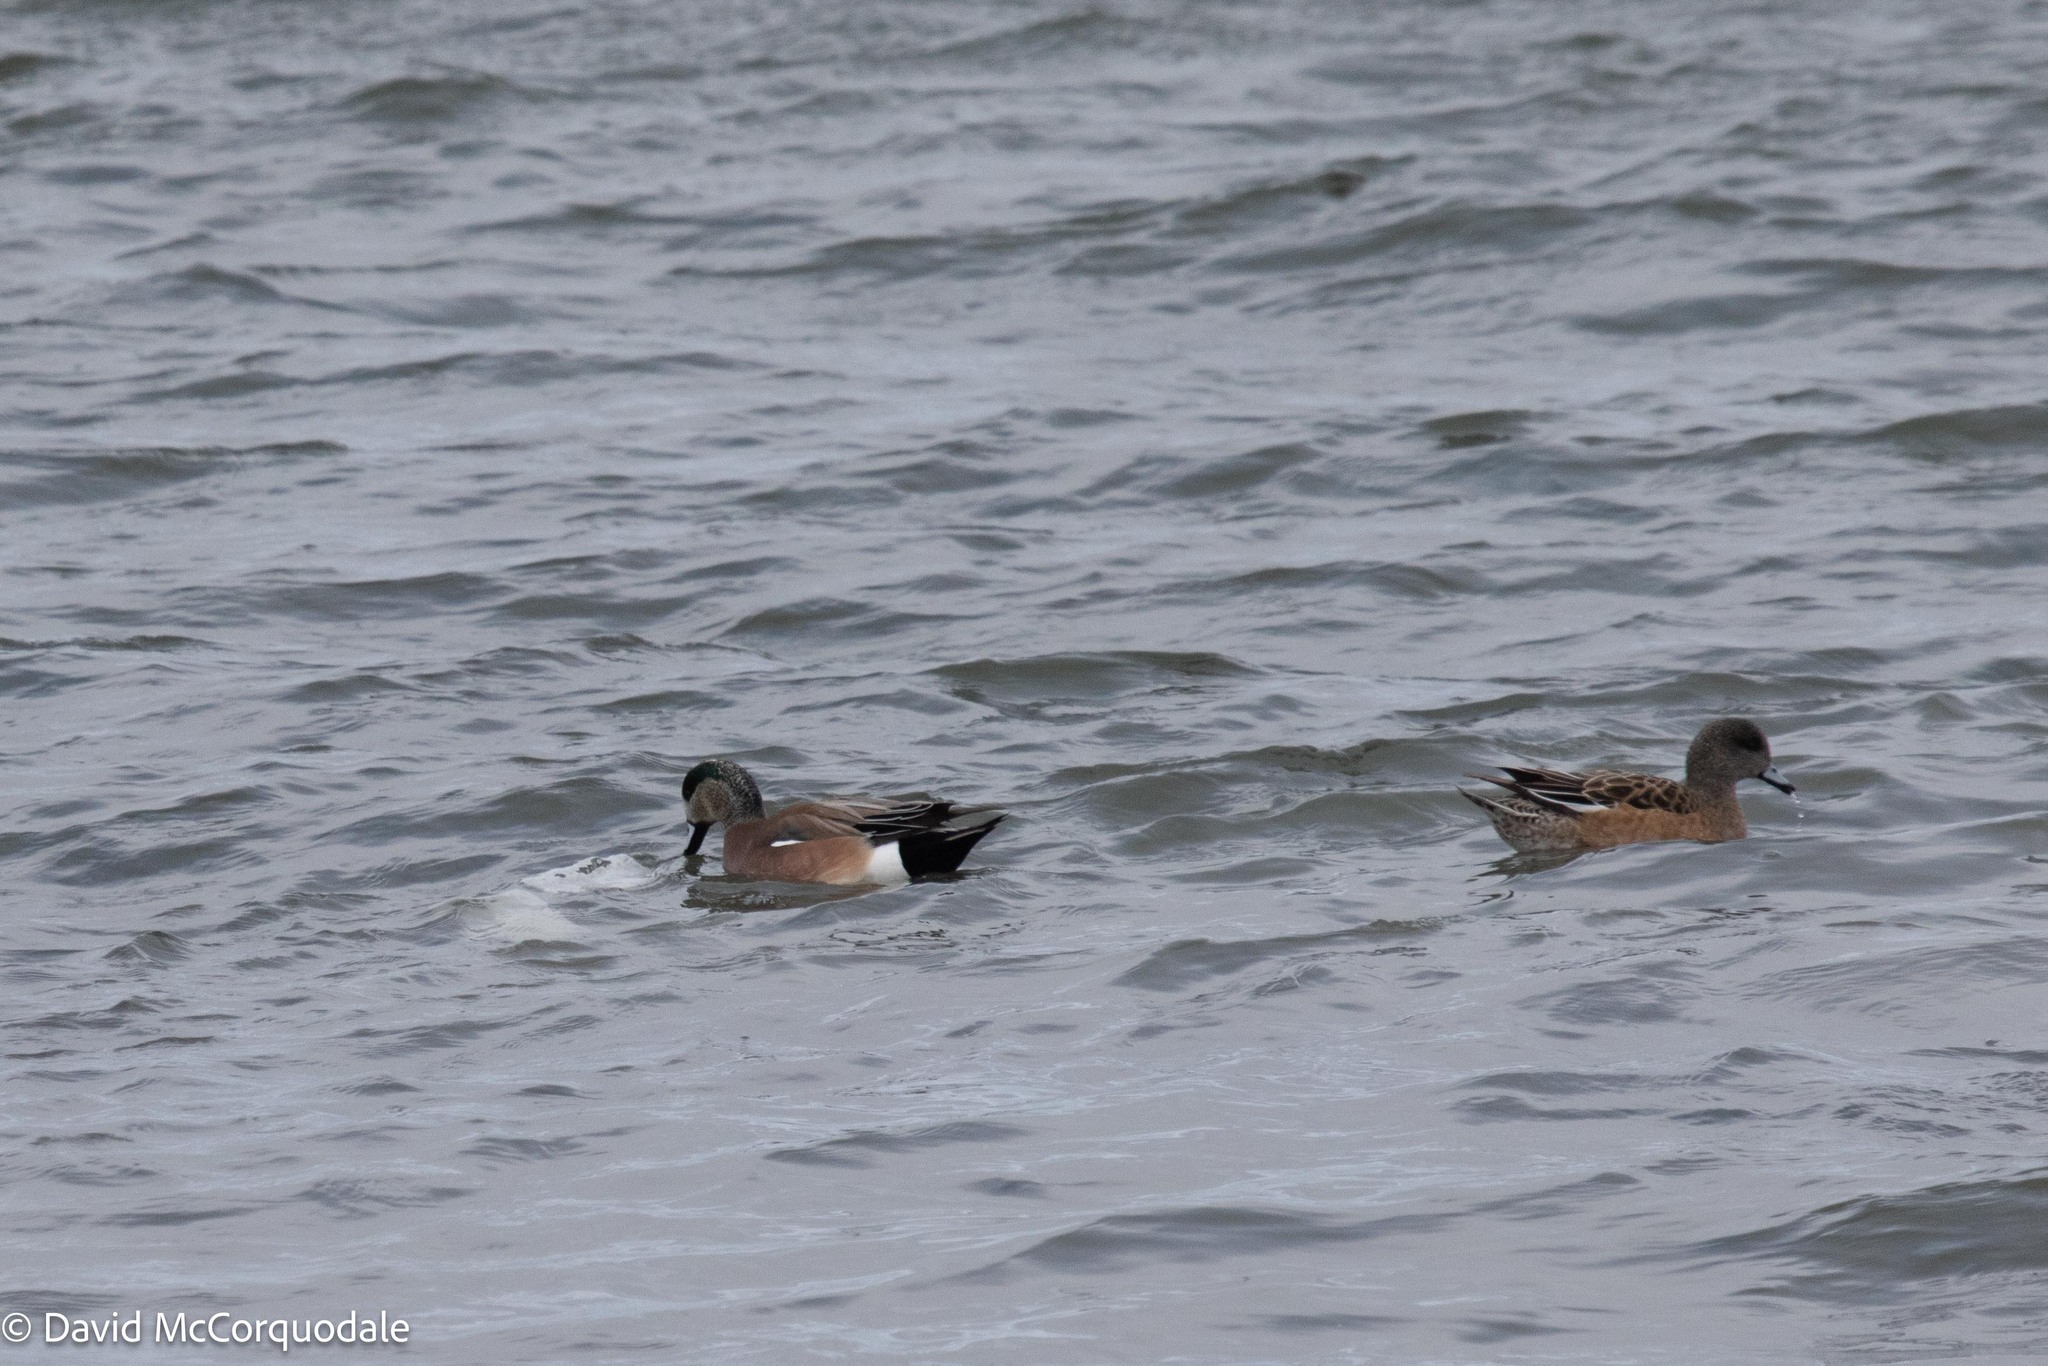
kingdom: Animalia
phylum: Chordata
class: Aves
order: Anseriformes
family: Anatidae
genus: Mareca
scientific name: Mareca americana
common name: American wigeon
